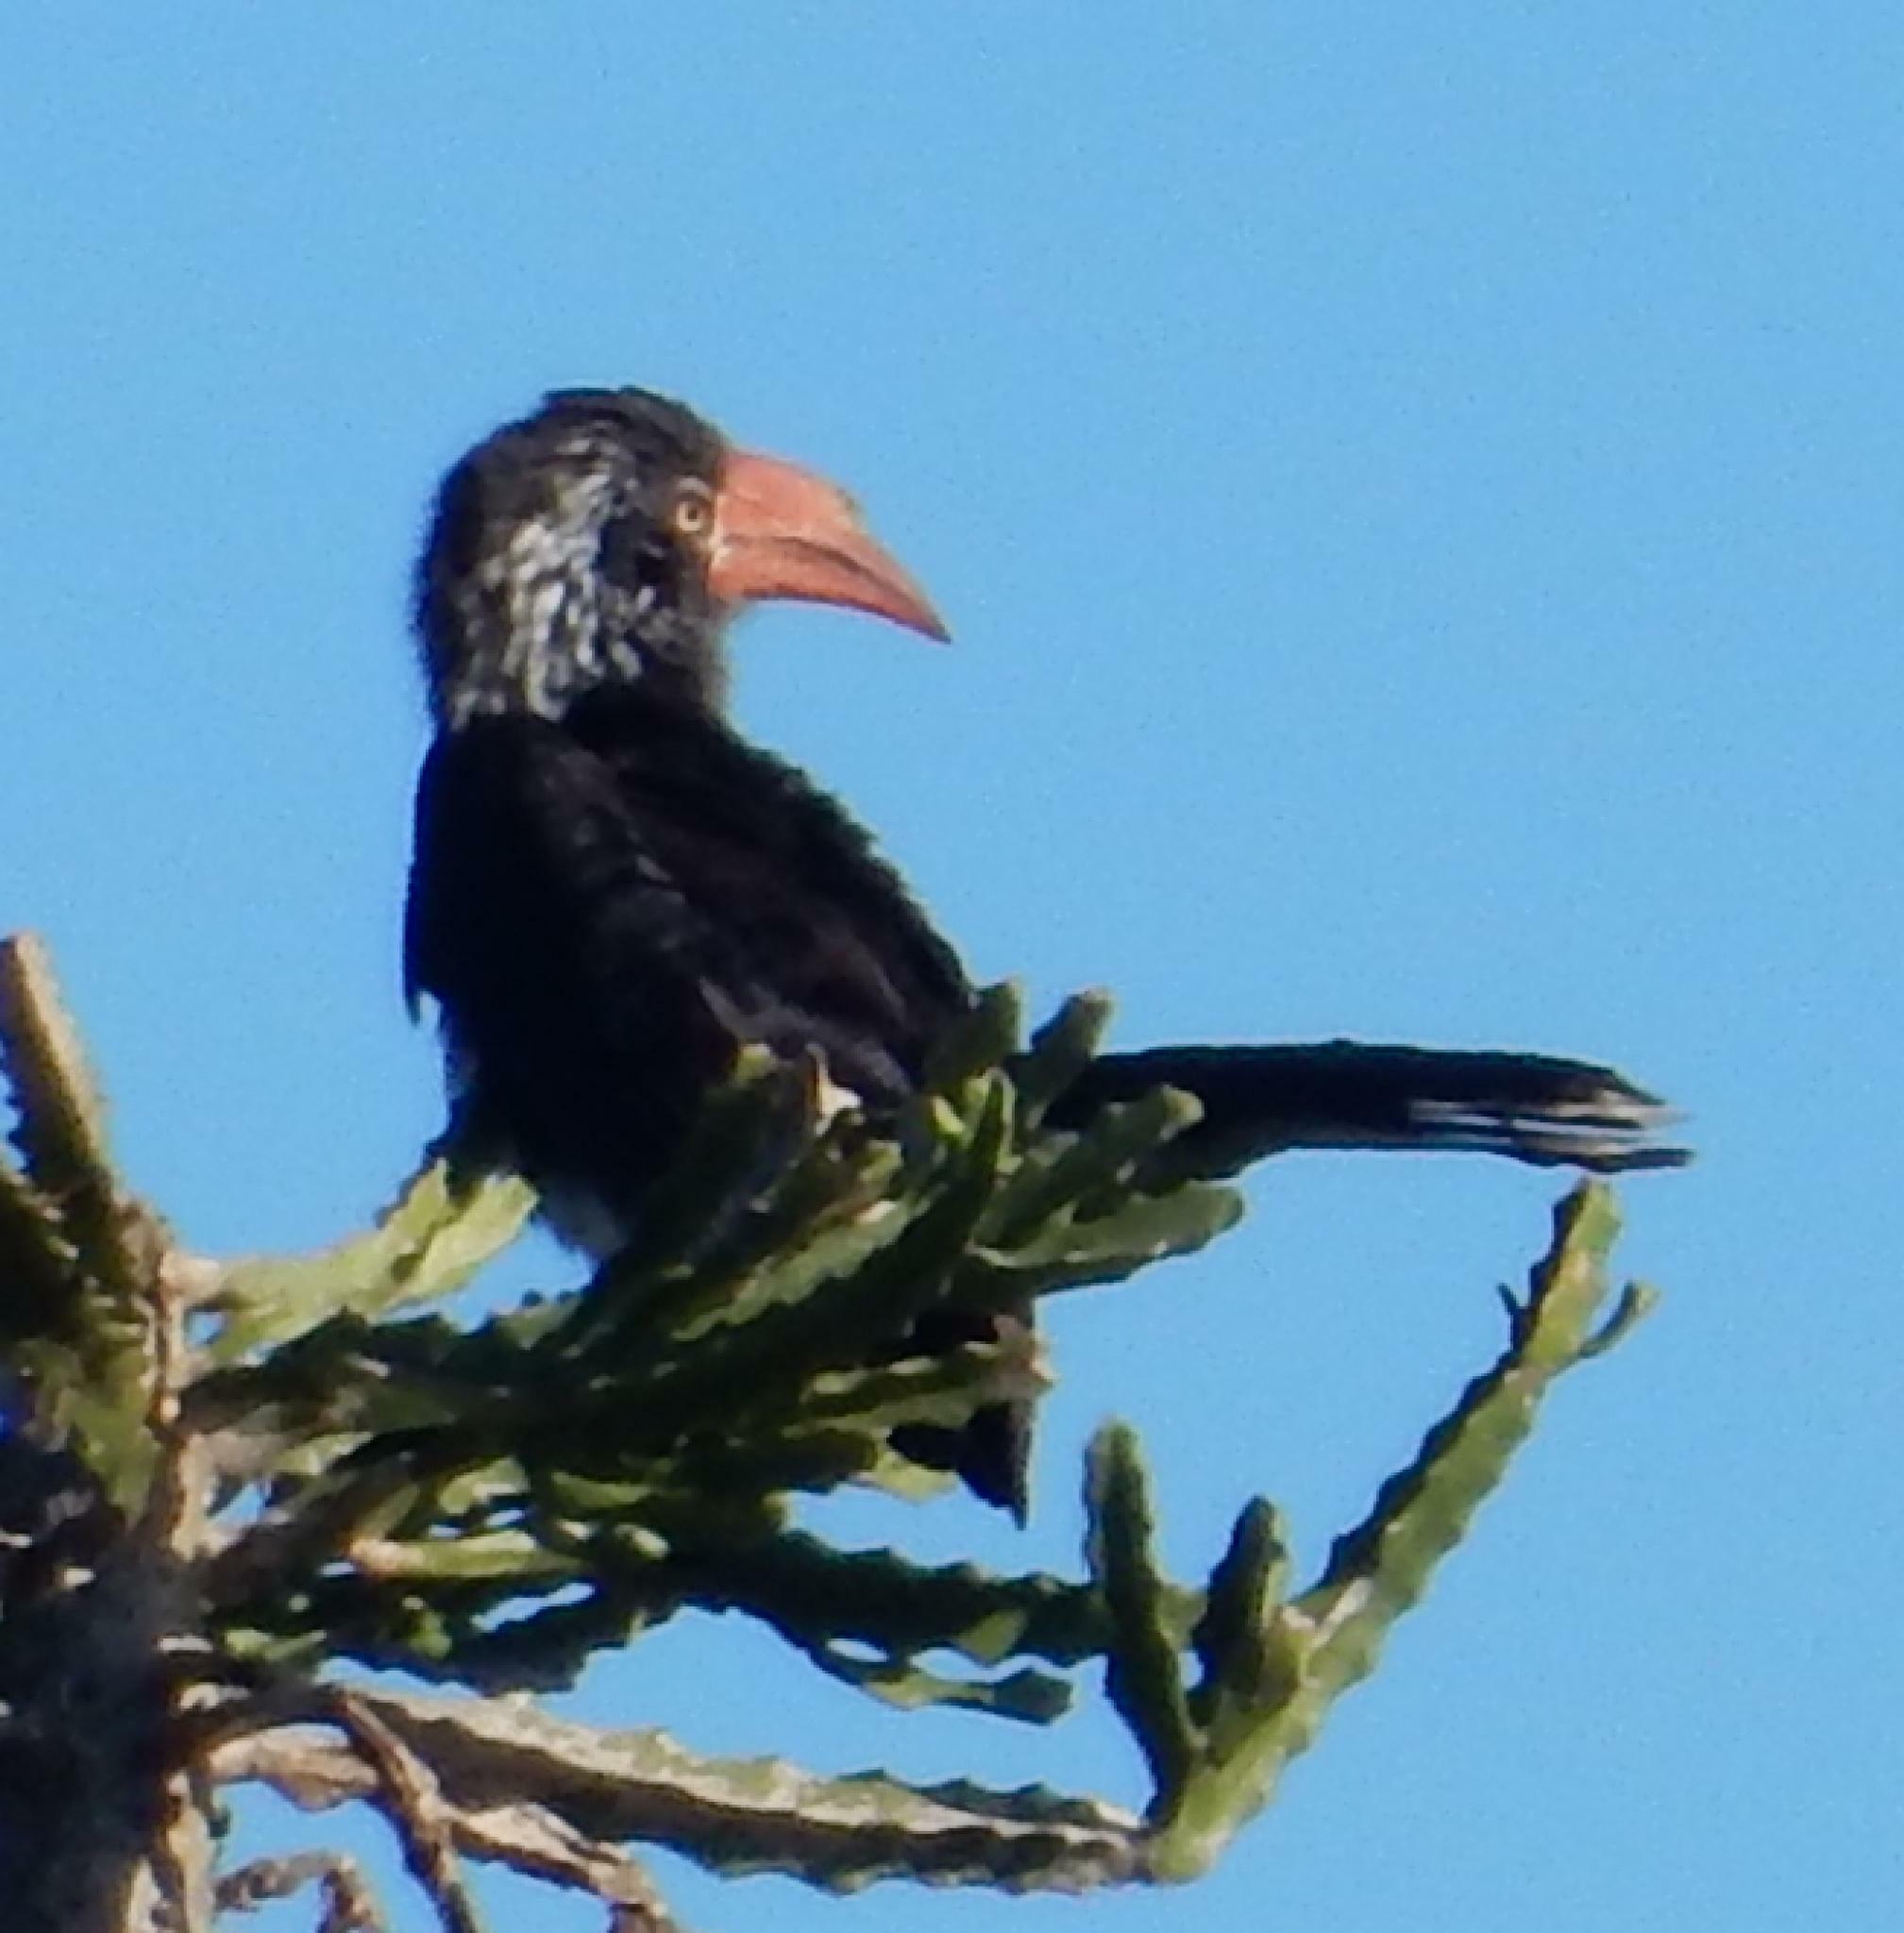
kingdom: Animalia
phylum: Chordata
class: Aves
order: Bucerotiformes
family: Bucerotidae
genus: Lophoceros
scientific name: Lophoceros alboterminatus
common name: Crowned hornbill
